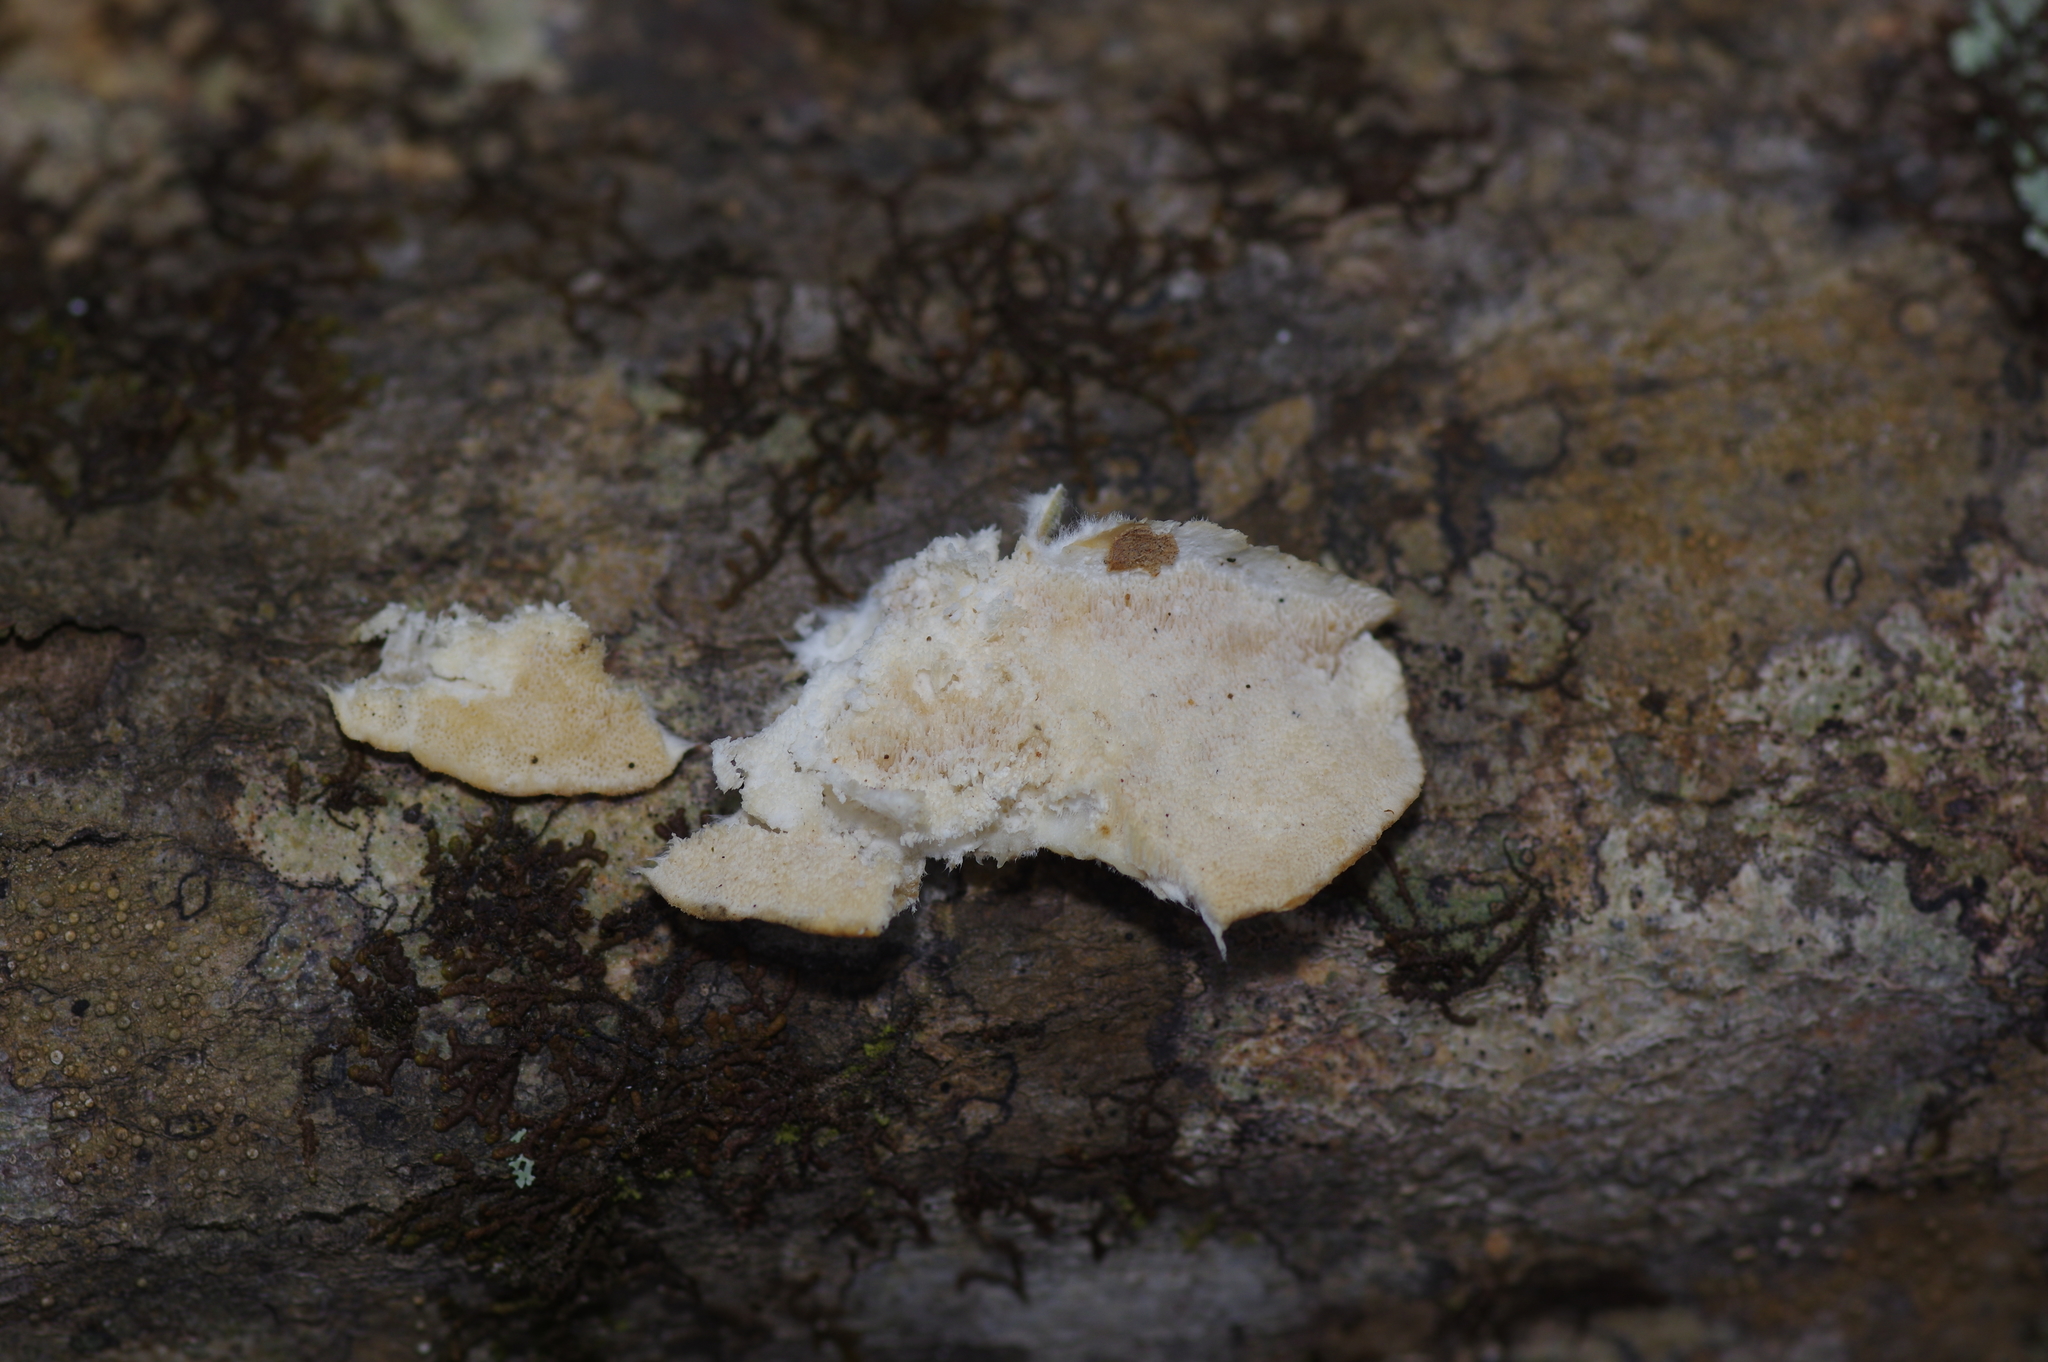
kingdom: Fungi
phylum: Basidiomycota
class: Agaricomycetes
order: Polyporales
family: Polyporaceae
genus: Trametes
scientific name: Trametes versicolor
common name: Turkeytail
